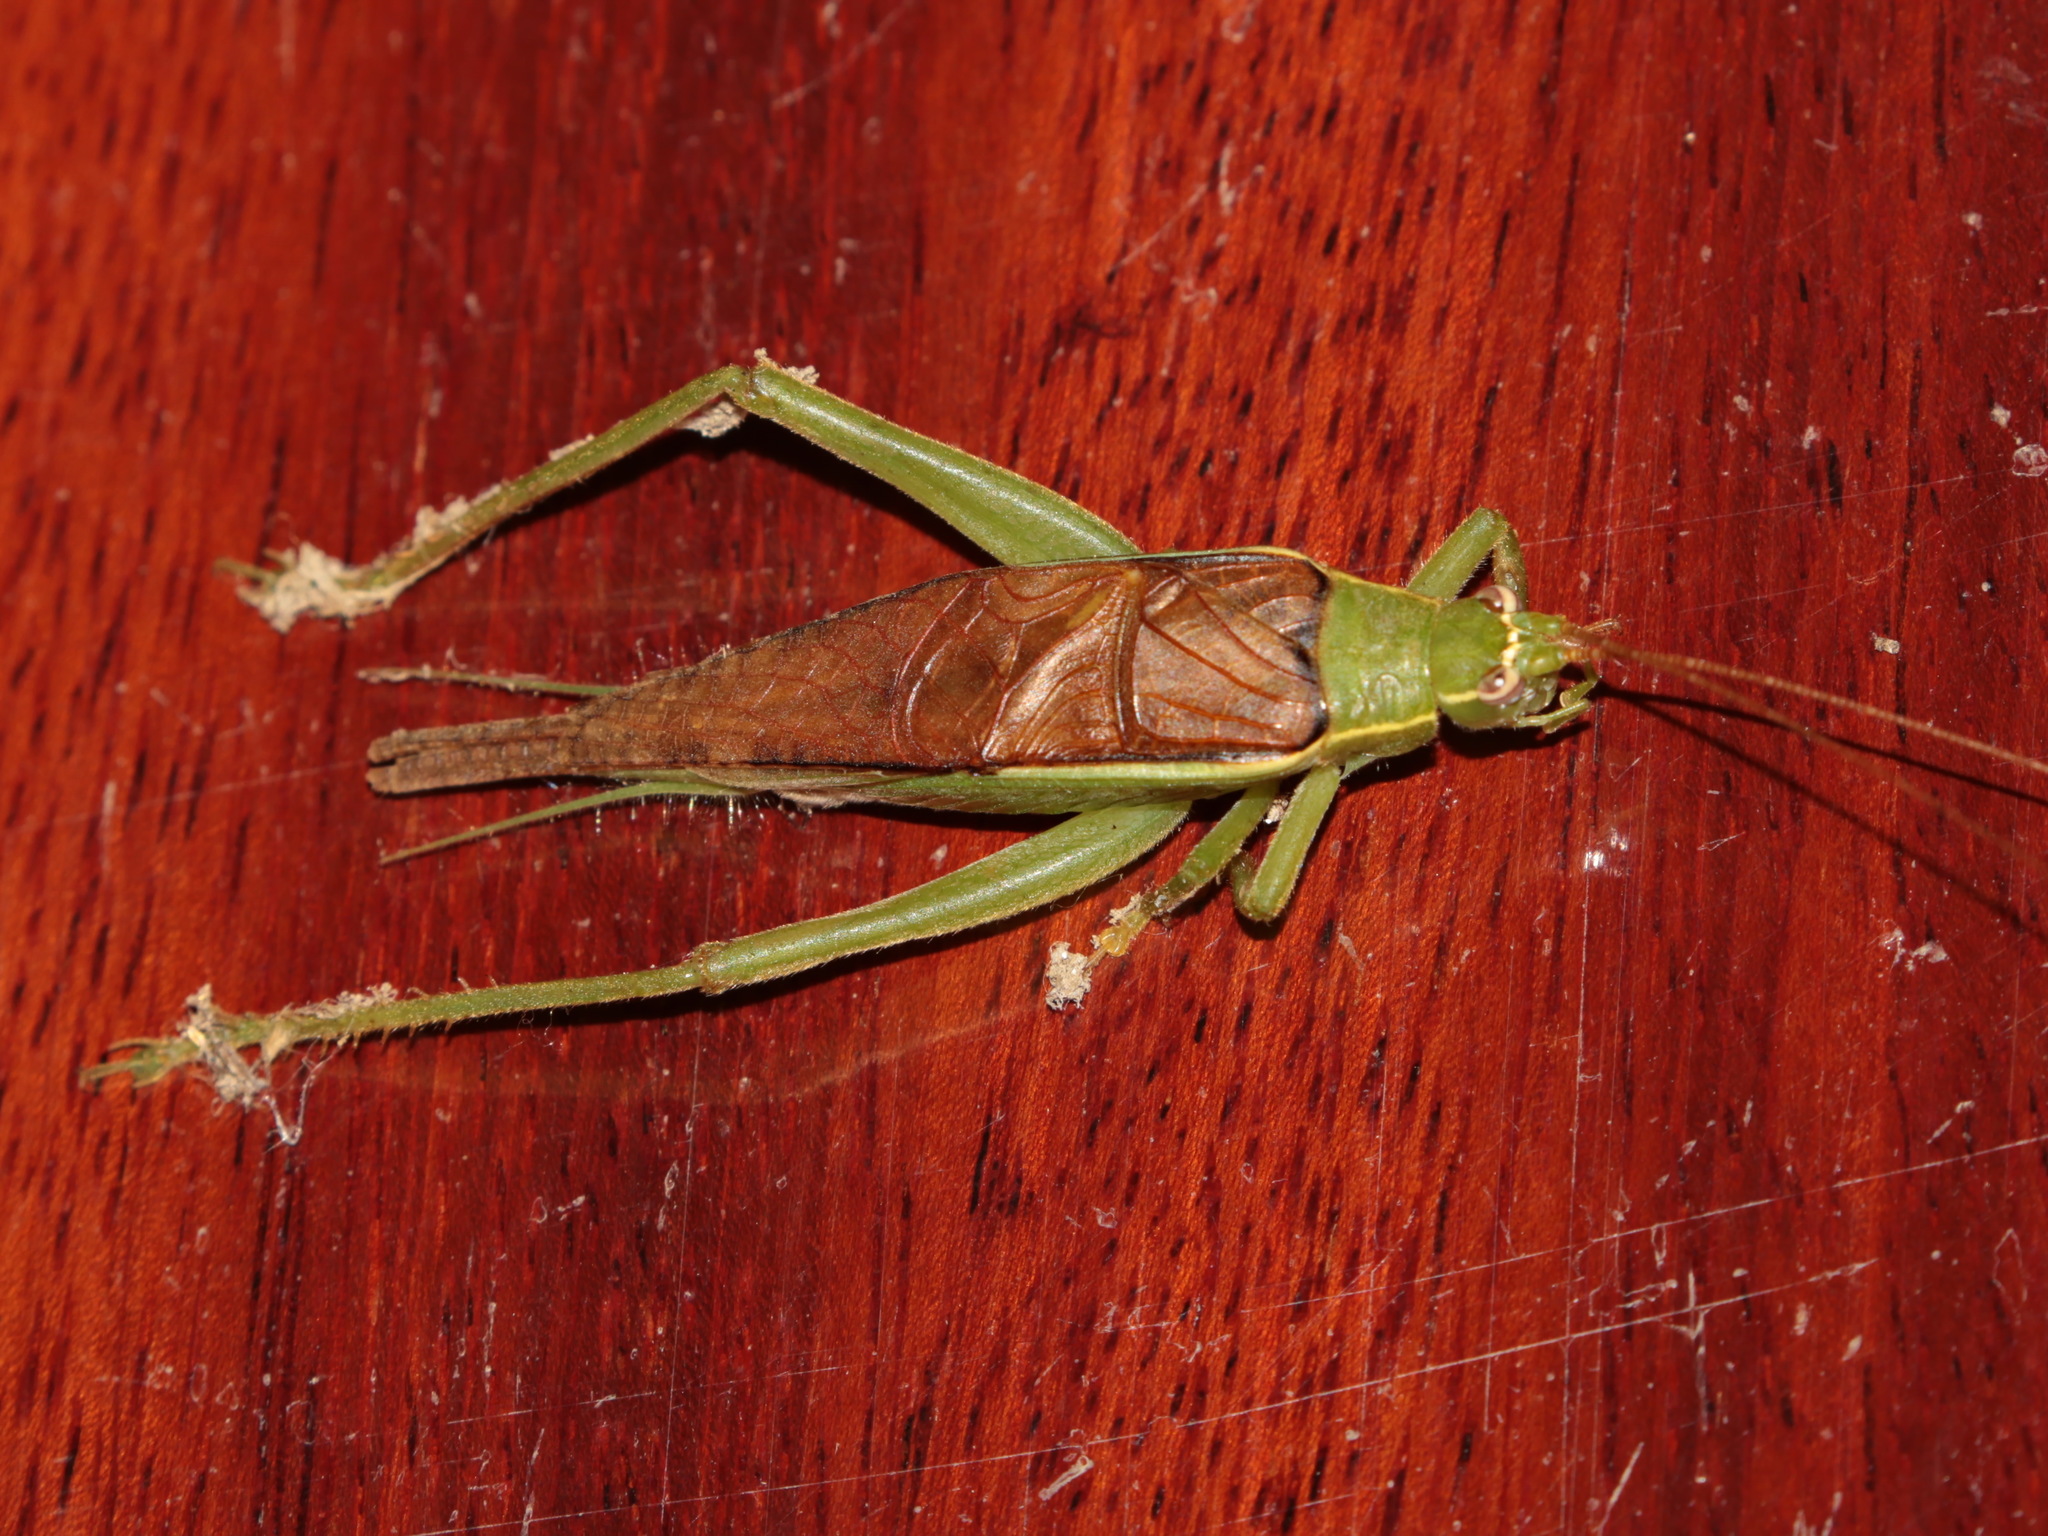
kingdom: Animalia
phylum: Arthropoda
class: Insecta
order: Orthoptera
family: Gryllidae
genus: Sonotrella
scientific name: Sonotrella bicolor
